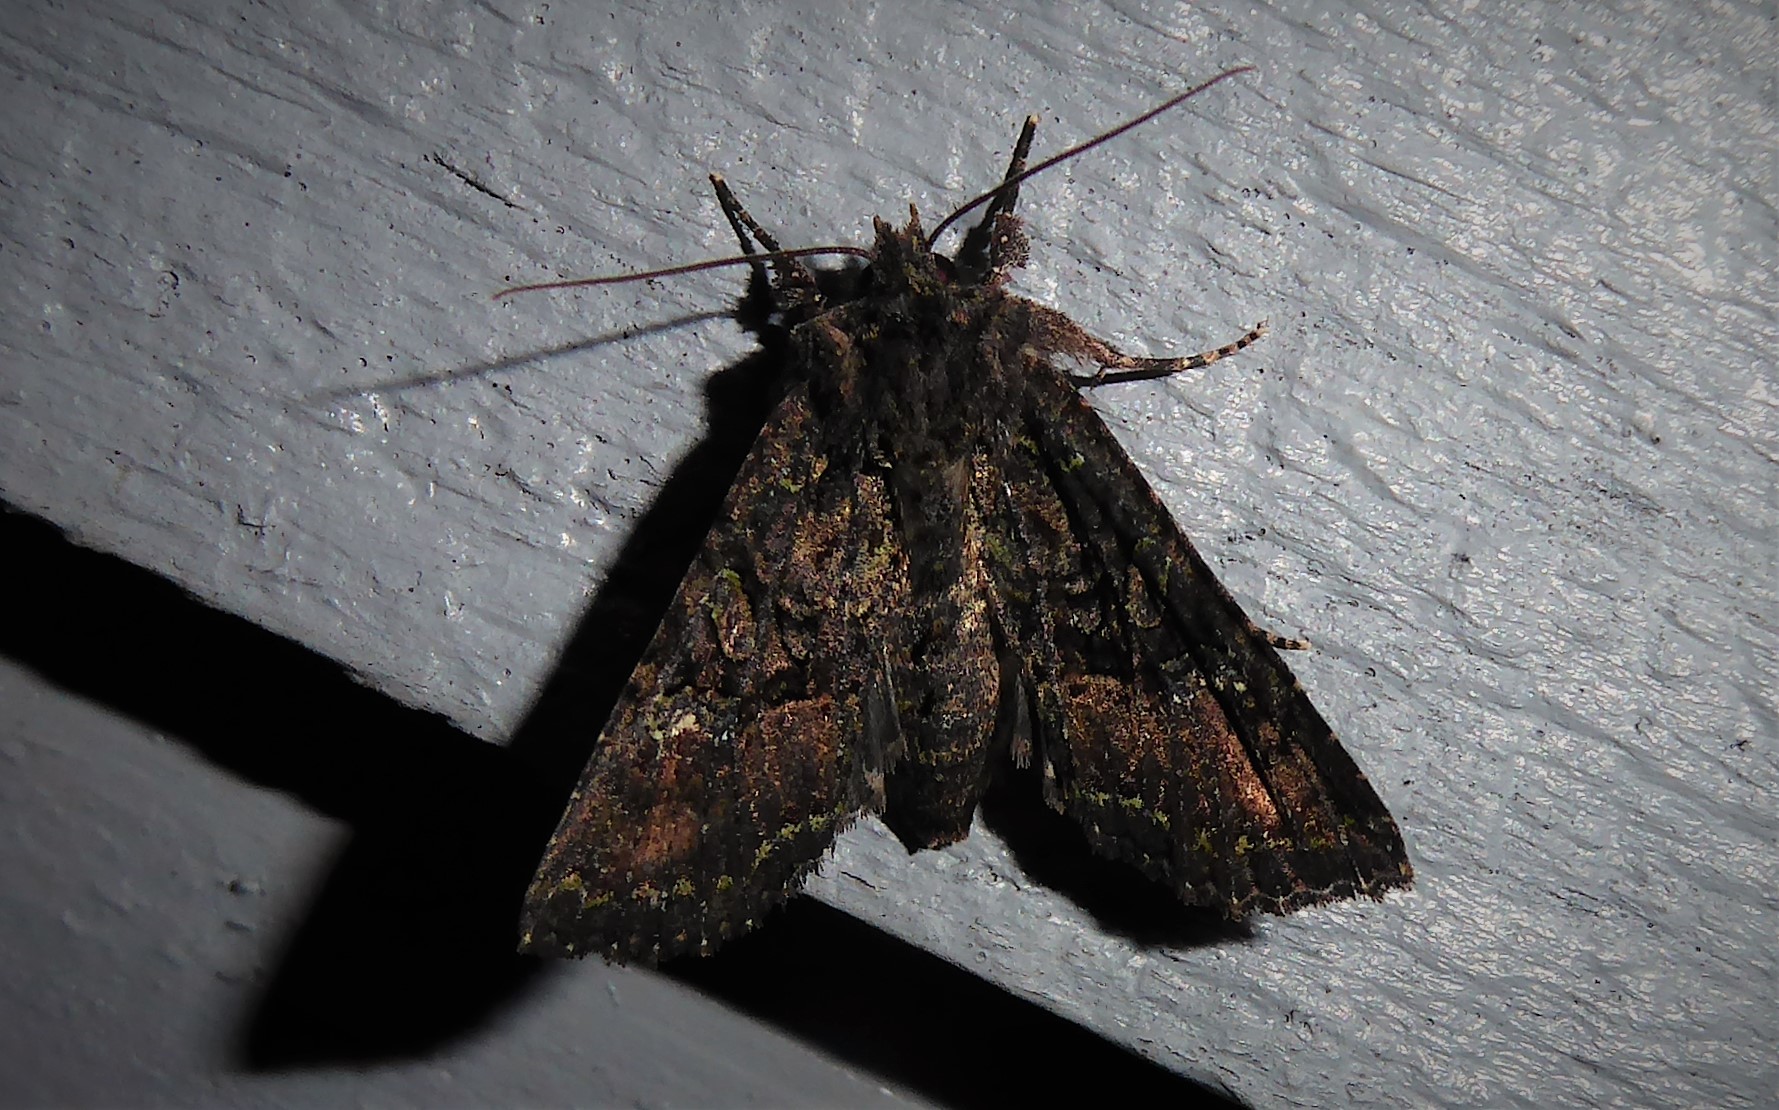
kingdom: Animalia
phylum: Arthropoda
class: Insecta
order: Lepidoptera
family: Noctuidae
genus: Meterana
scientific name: Meterana ochthistis
